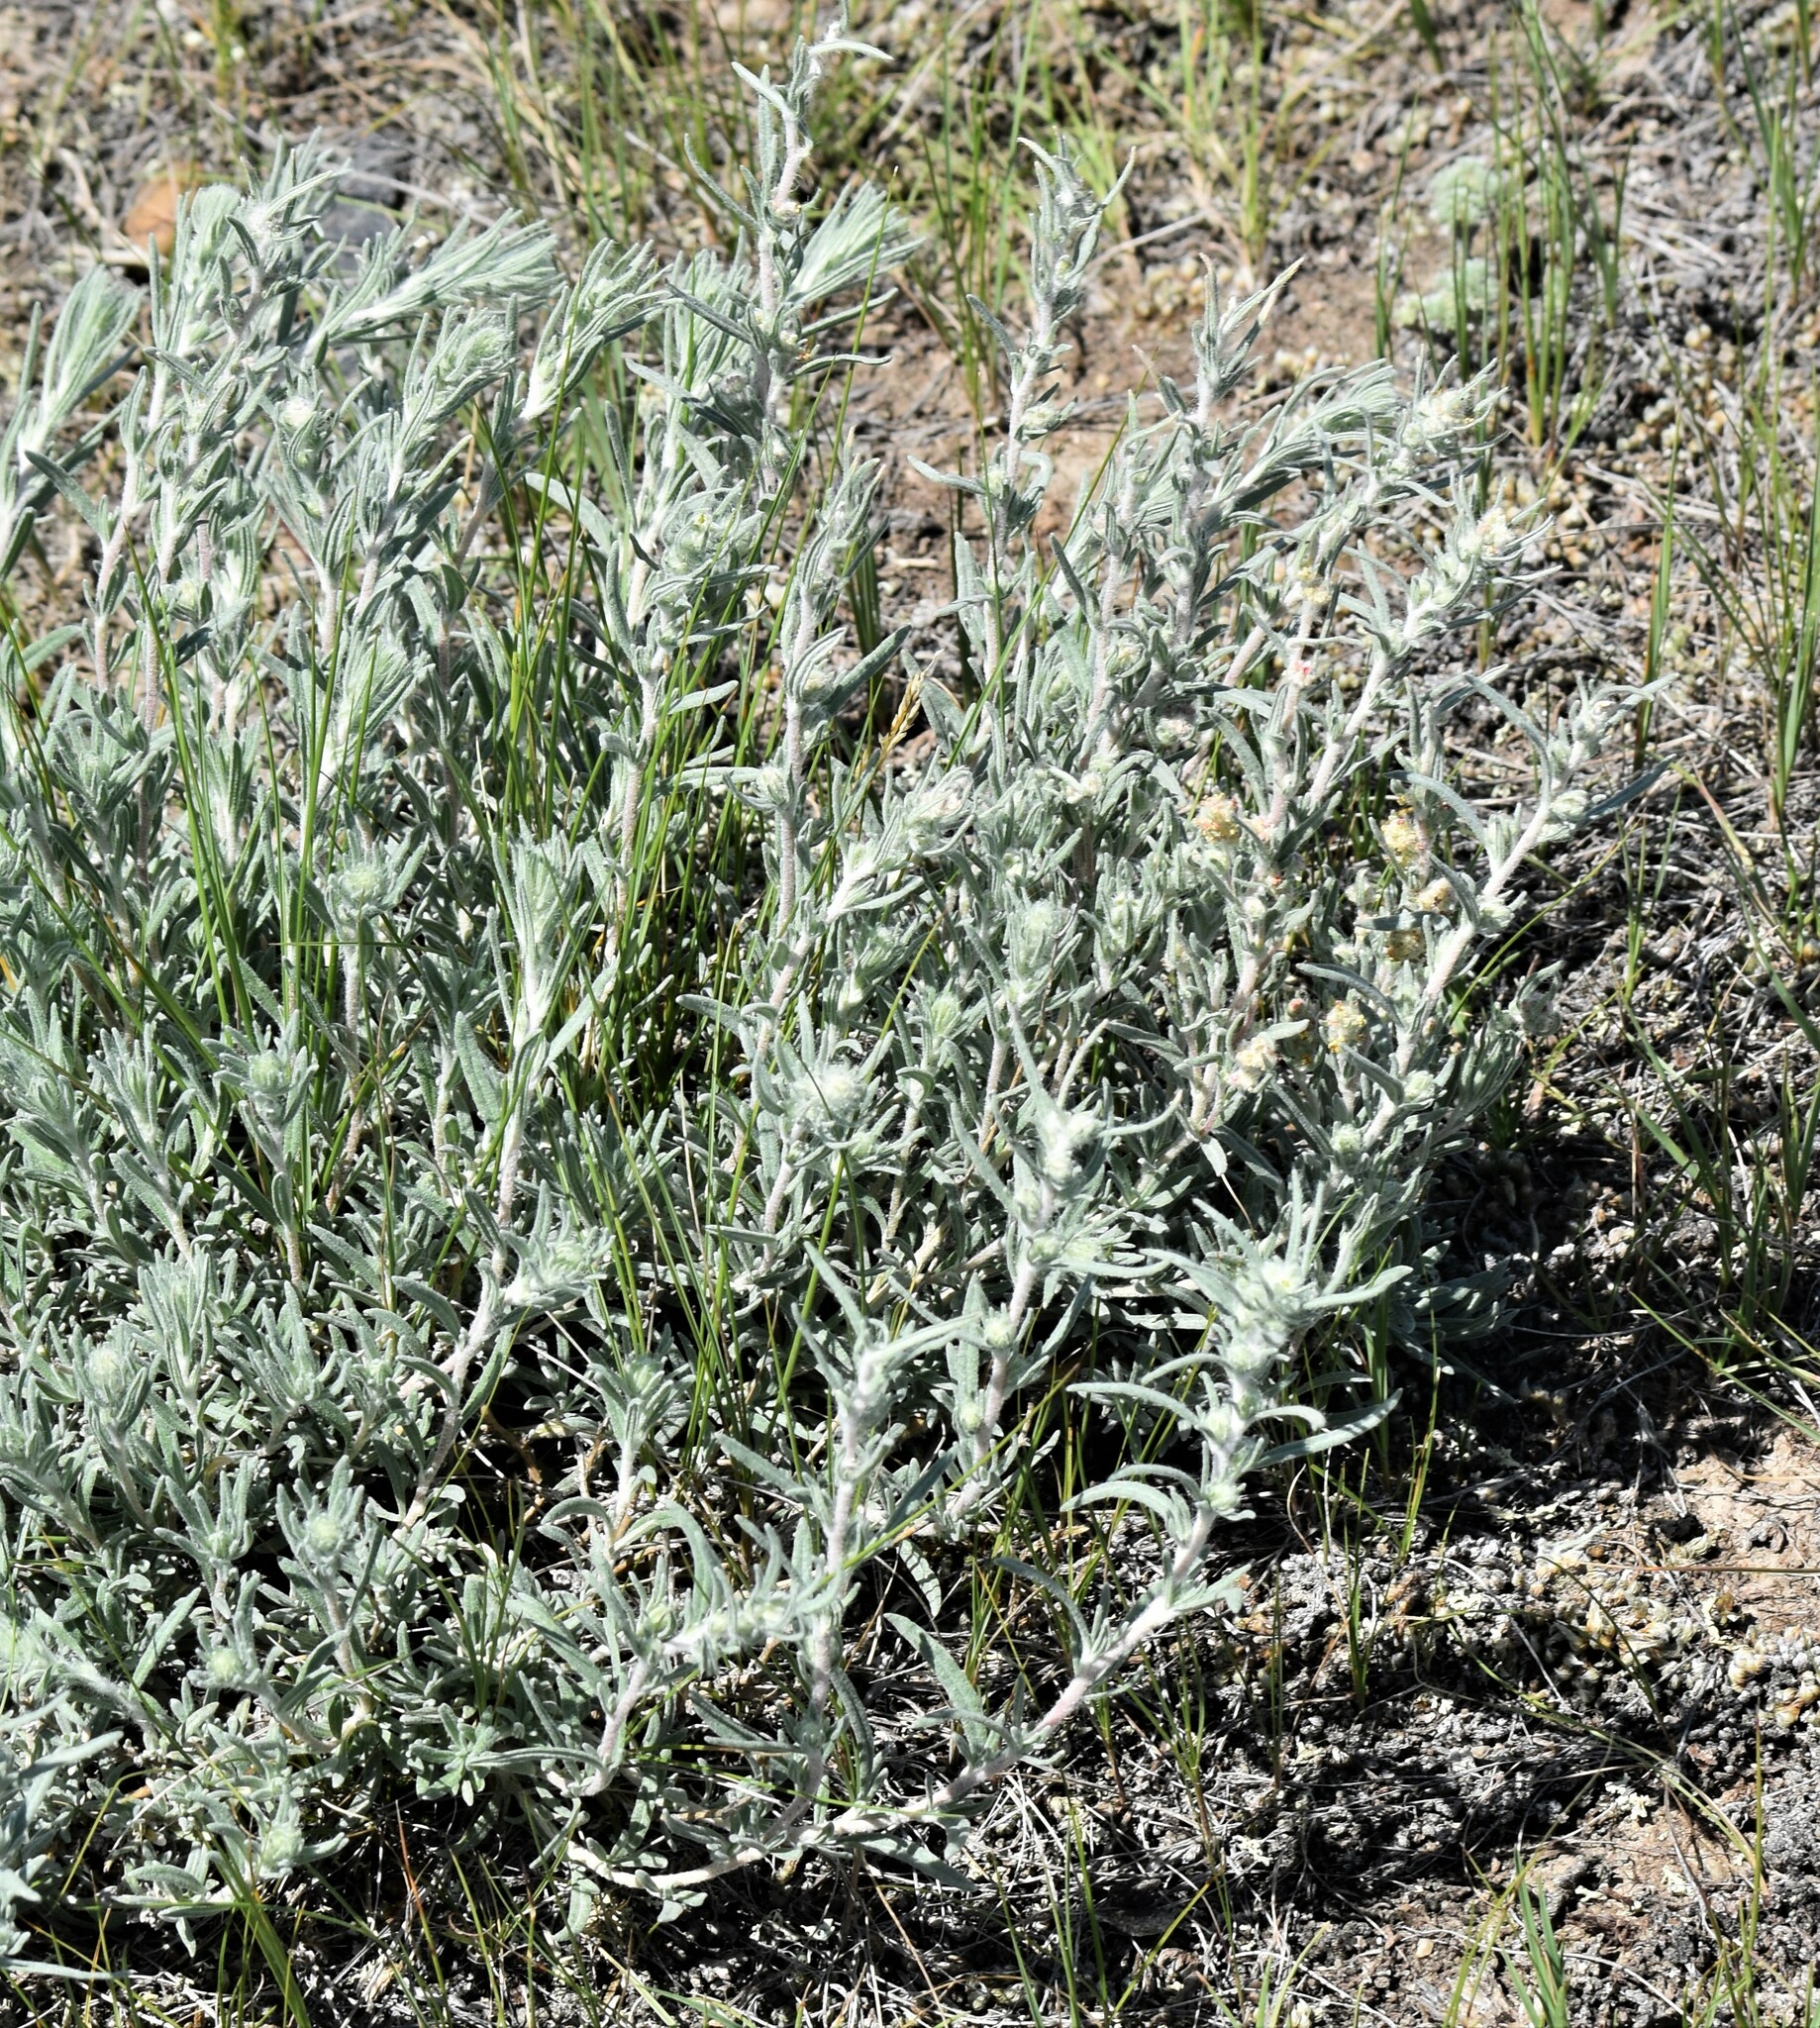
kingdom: Plantae
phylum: Tracheophyta
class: Magnoliopsida
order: Caryophyllales
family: Amaranthaceae
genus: Krascheninnikovia
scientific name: Krascheninnikovia lanata
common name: Winterfat
